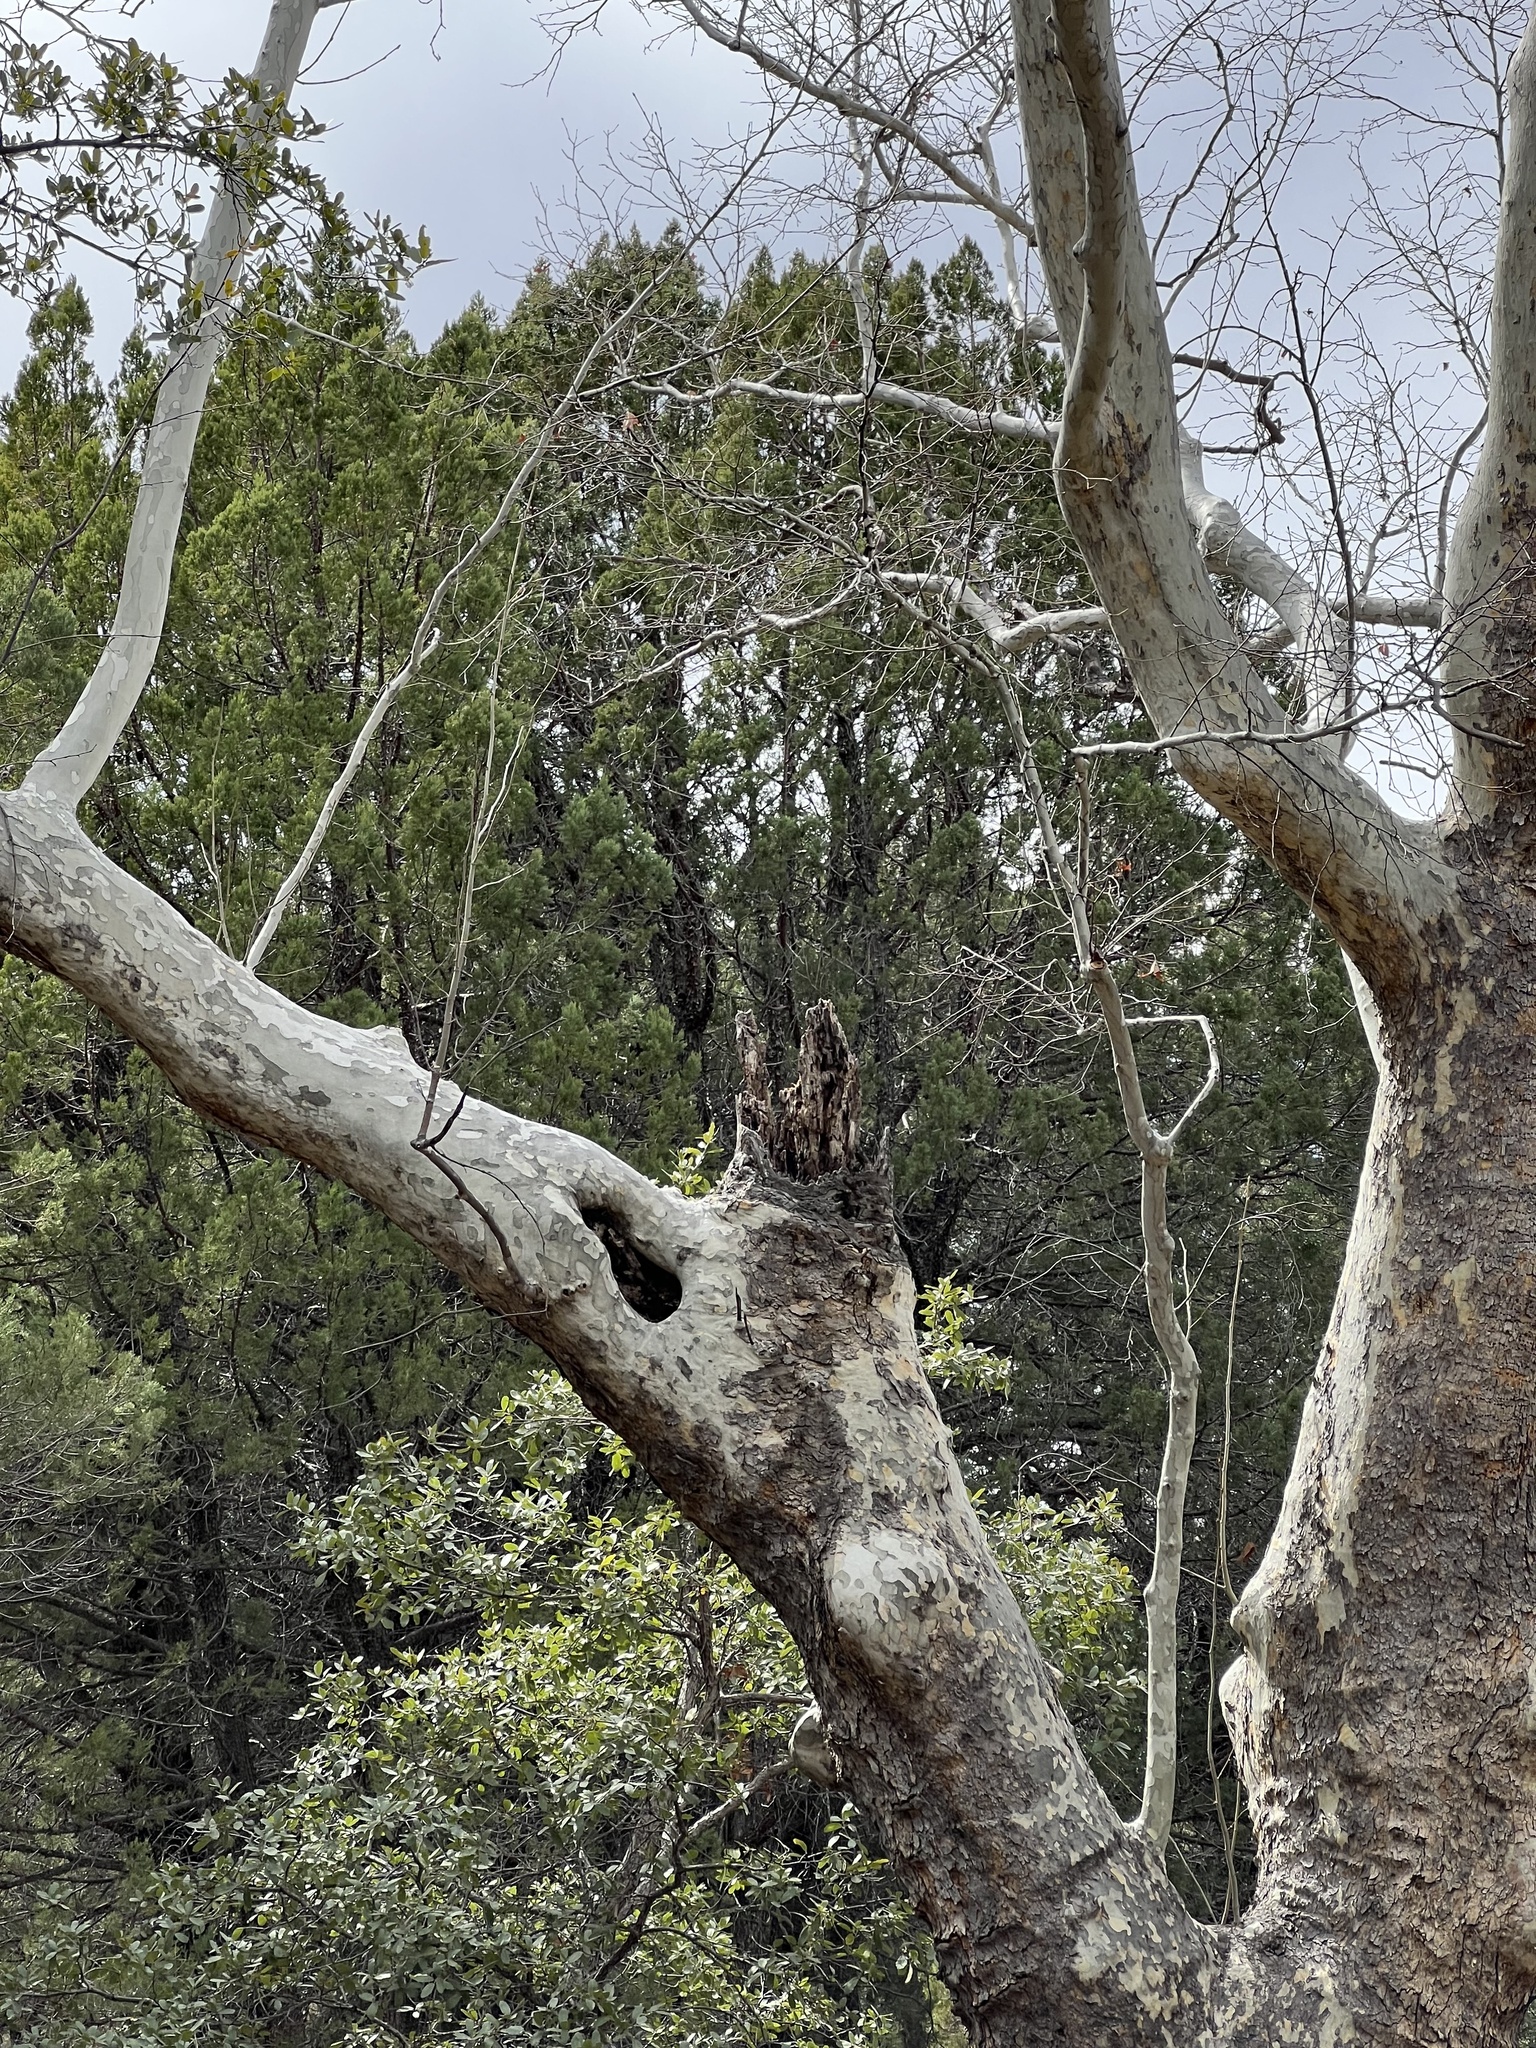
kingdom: Plantae
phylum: Tracheophyta
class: Magnoliopsida
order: Proteales
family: Platanaceae
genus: Platanus
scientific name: Platanus wrightii
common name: Arizona sycamore
